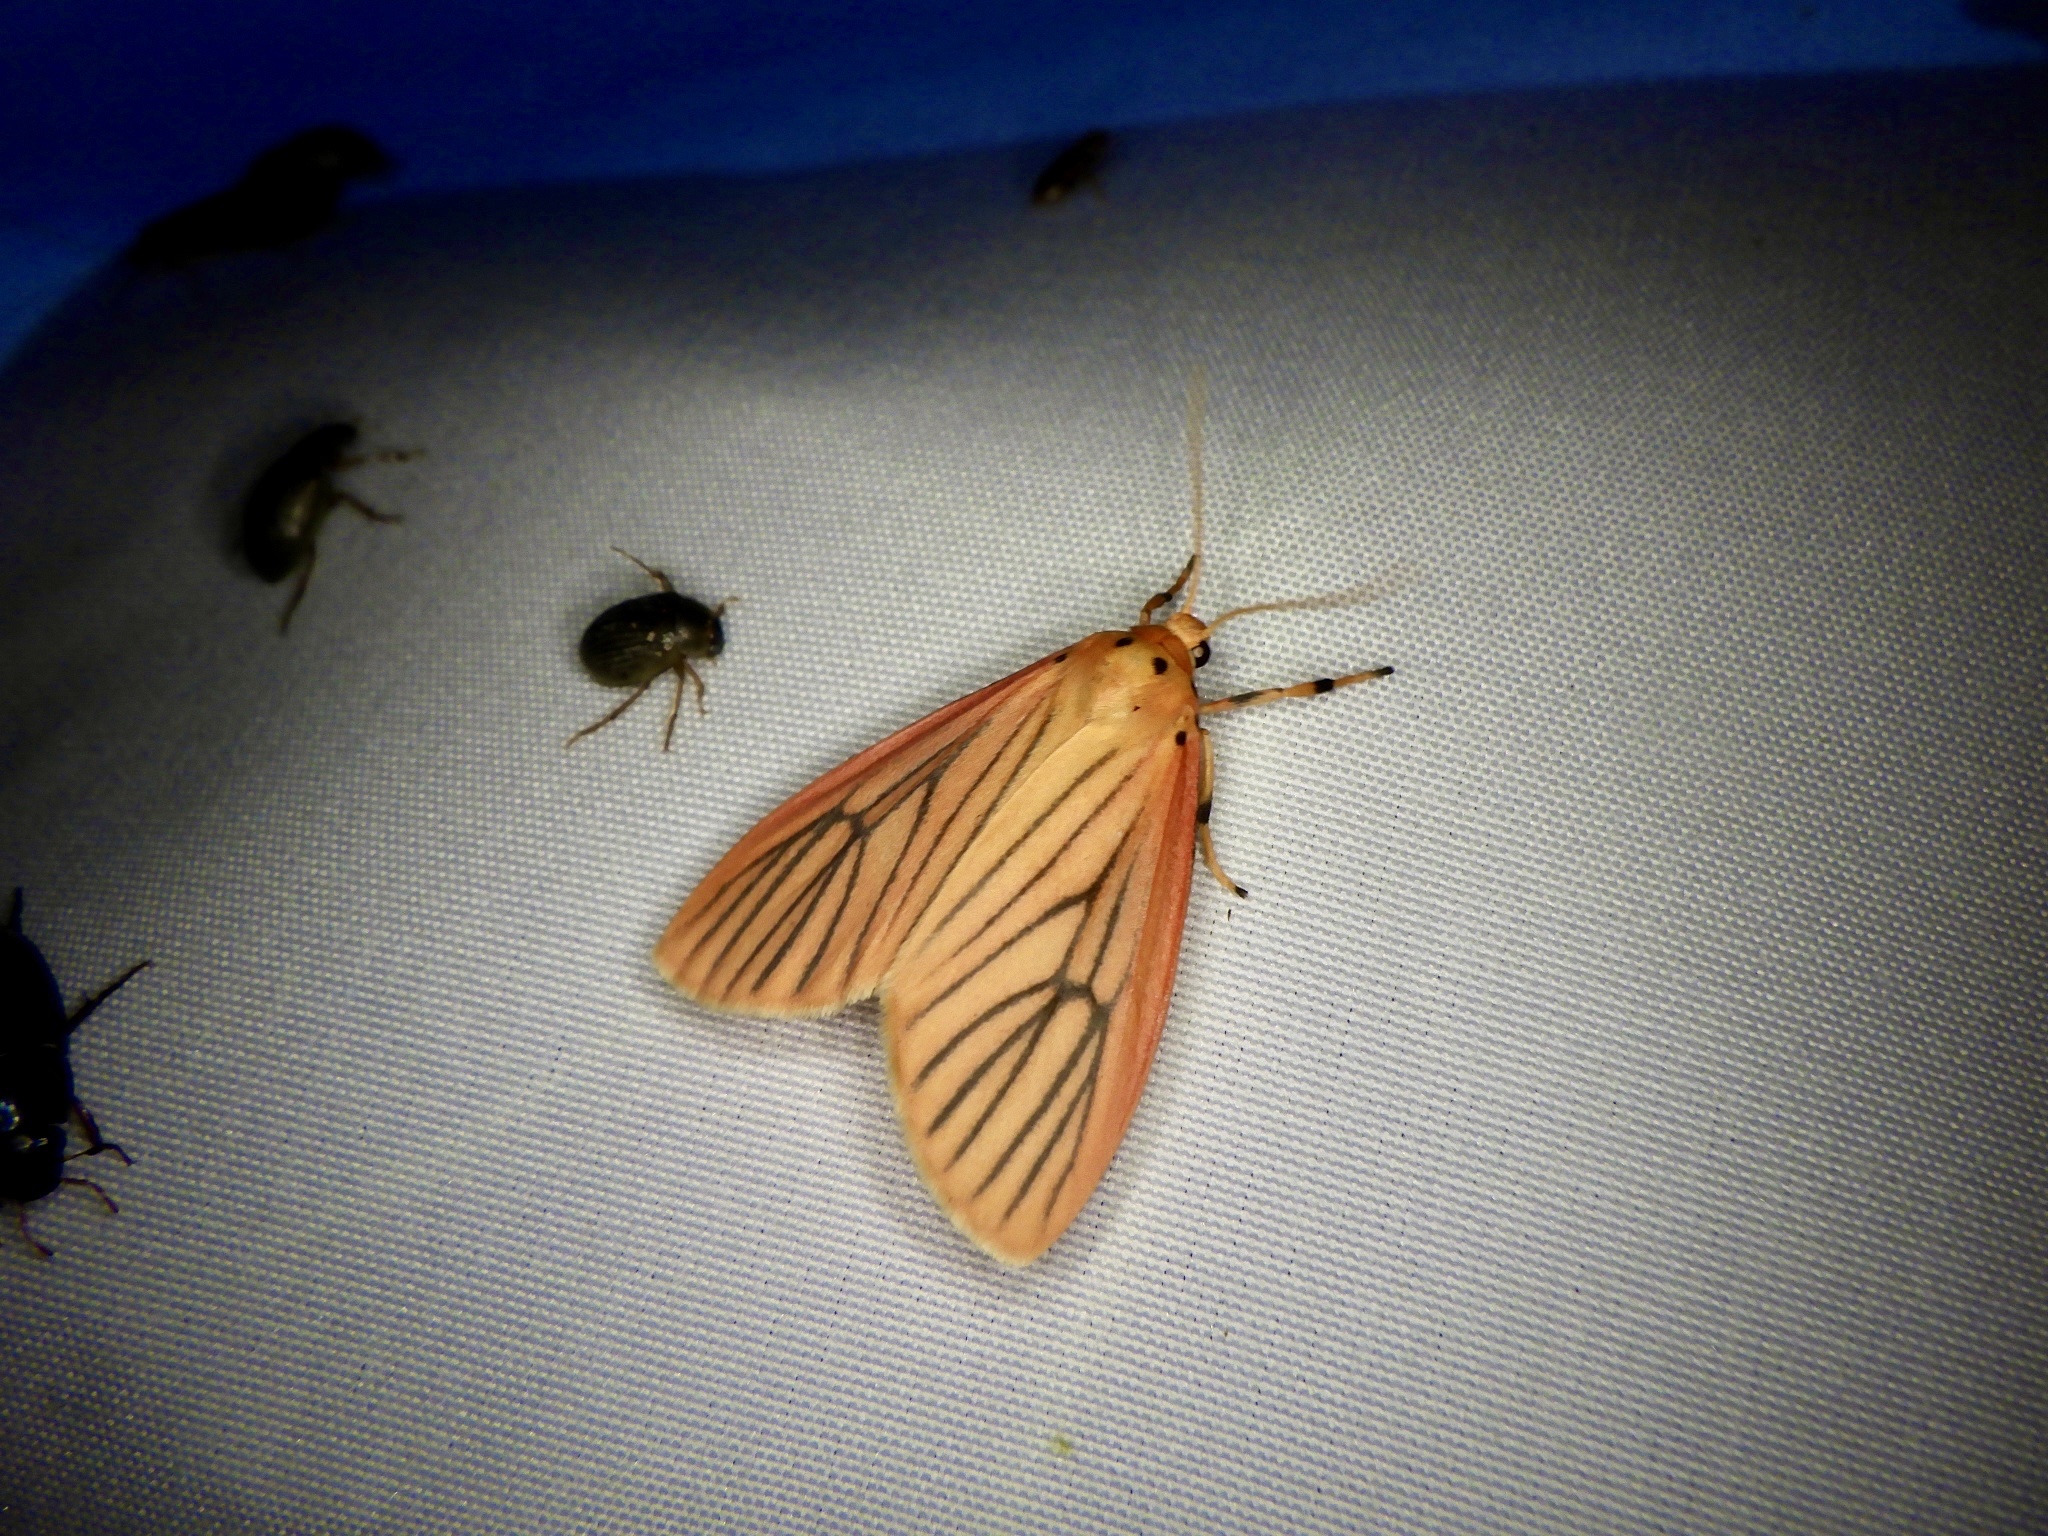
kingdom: Animalia
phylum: Arthropoda
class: Insecta
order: Lepidoptera
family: Erebidae
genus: Melanaema
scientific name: Melanaema venata
